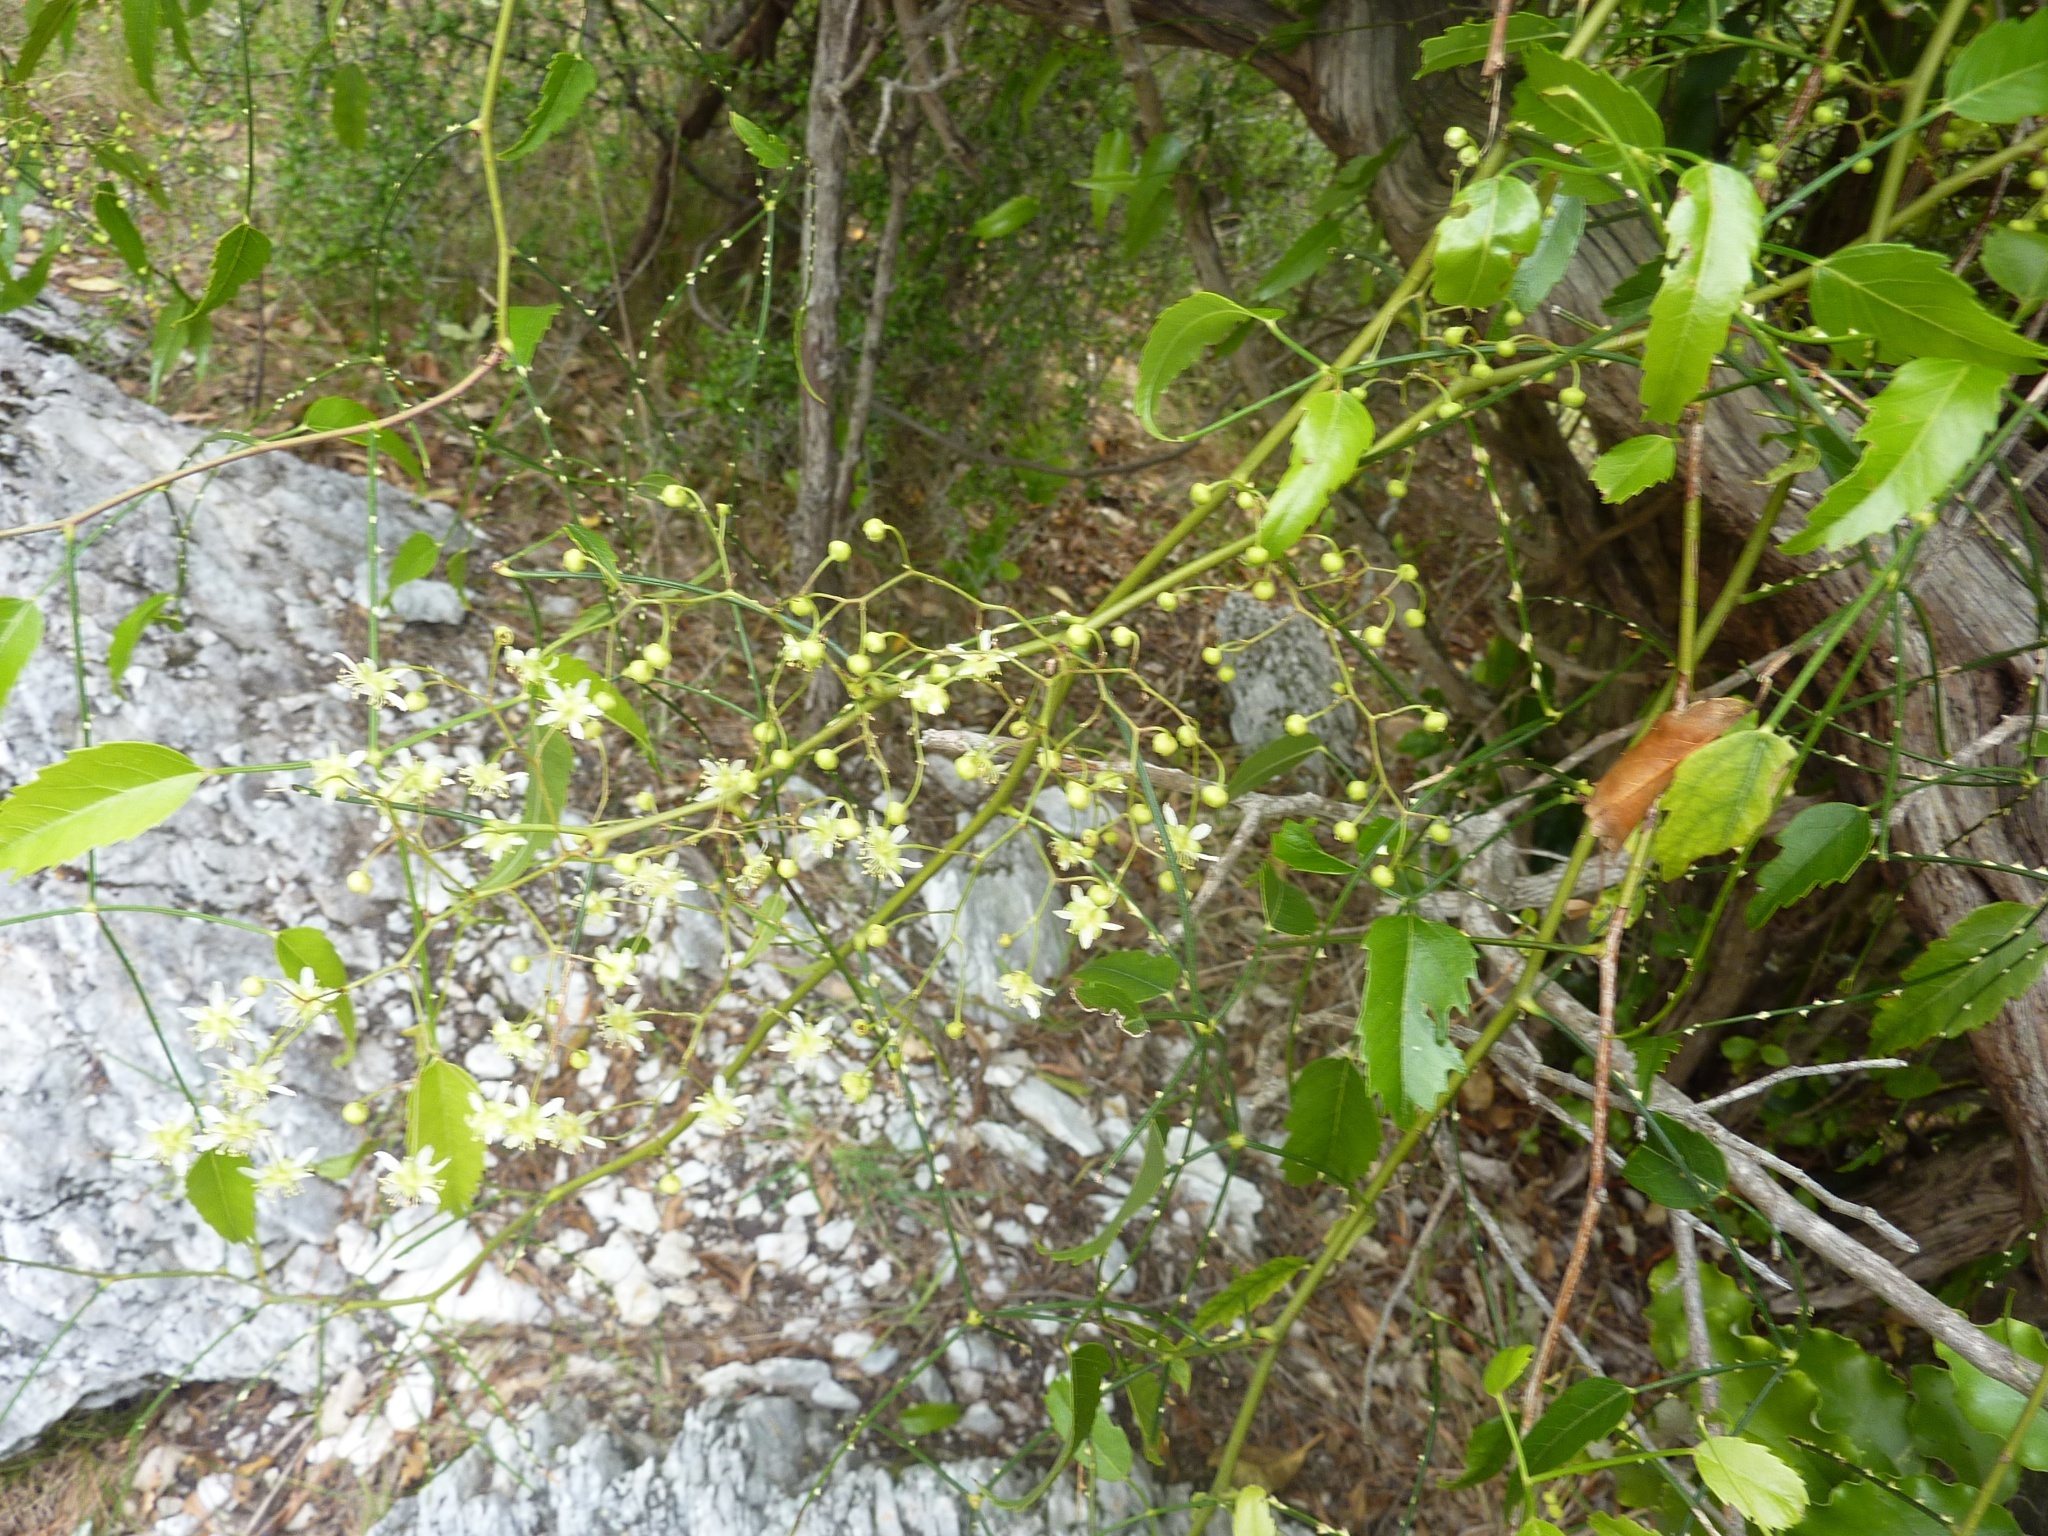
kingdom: Plantae
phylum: Tracheophyta
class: Magnoliopsida
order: Rosales
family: Rosaceae
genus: Rubus
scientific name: Rubus squarrosus
